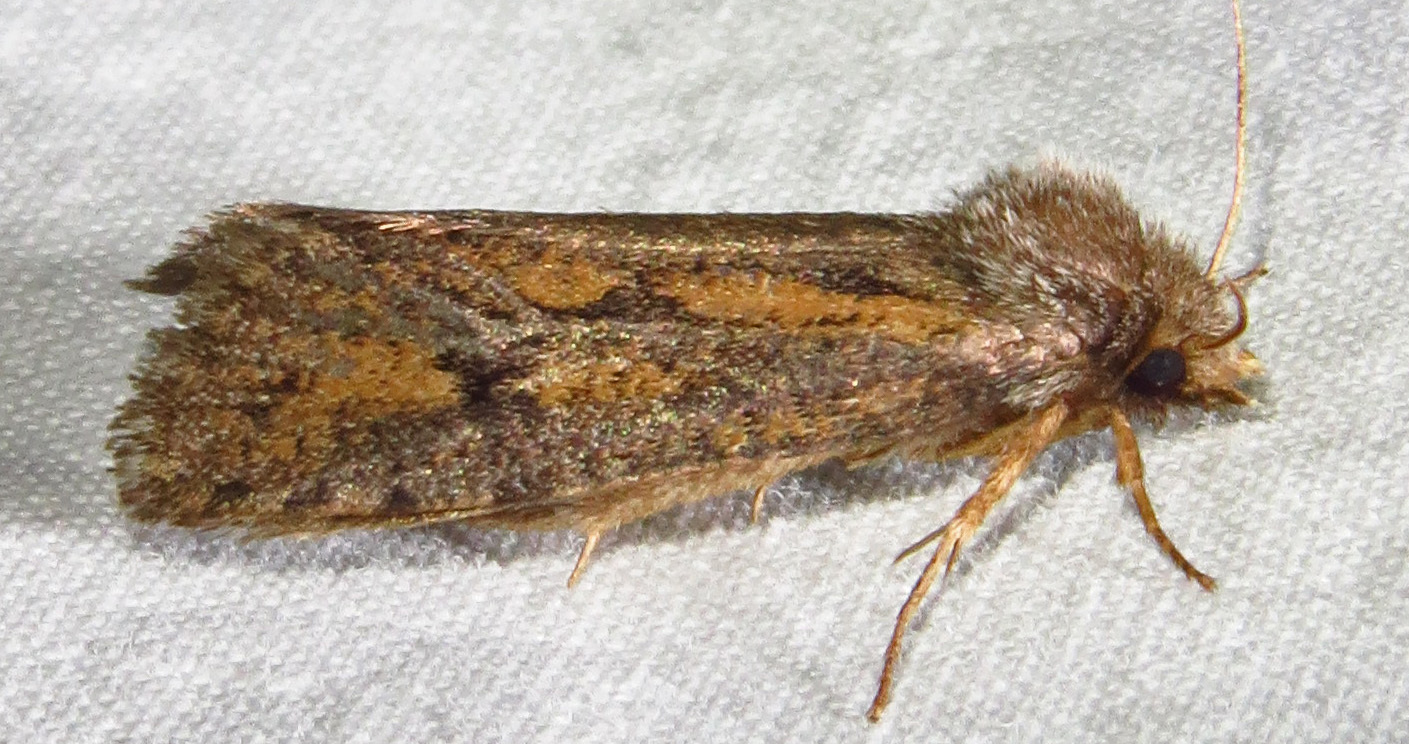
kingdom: Animalia
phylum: Arthropoda
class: Insecta
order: Lepidoptera
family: Tineidae
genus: Acrolophus
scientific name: Acrolophus popeanella
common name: Clemens' grass tubeworm moth
